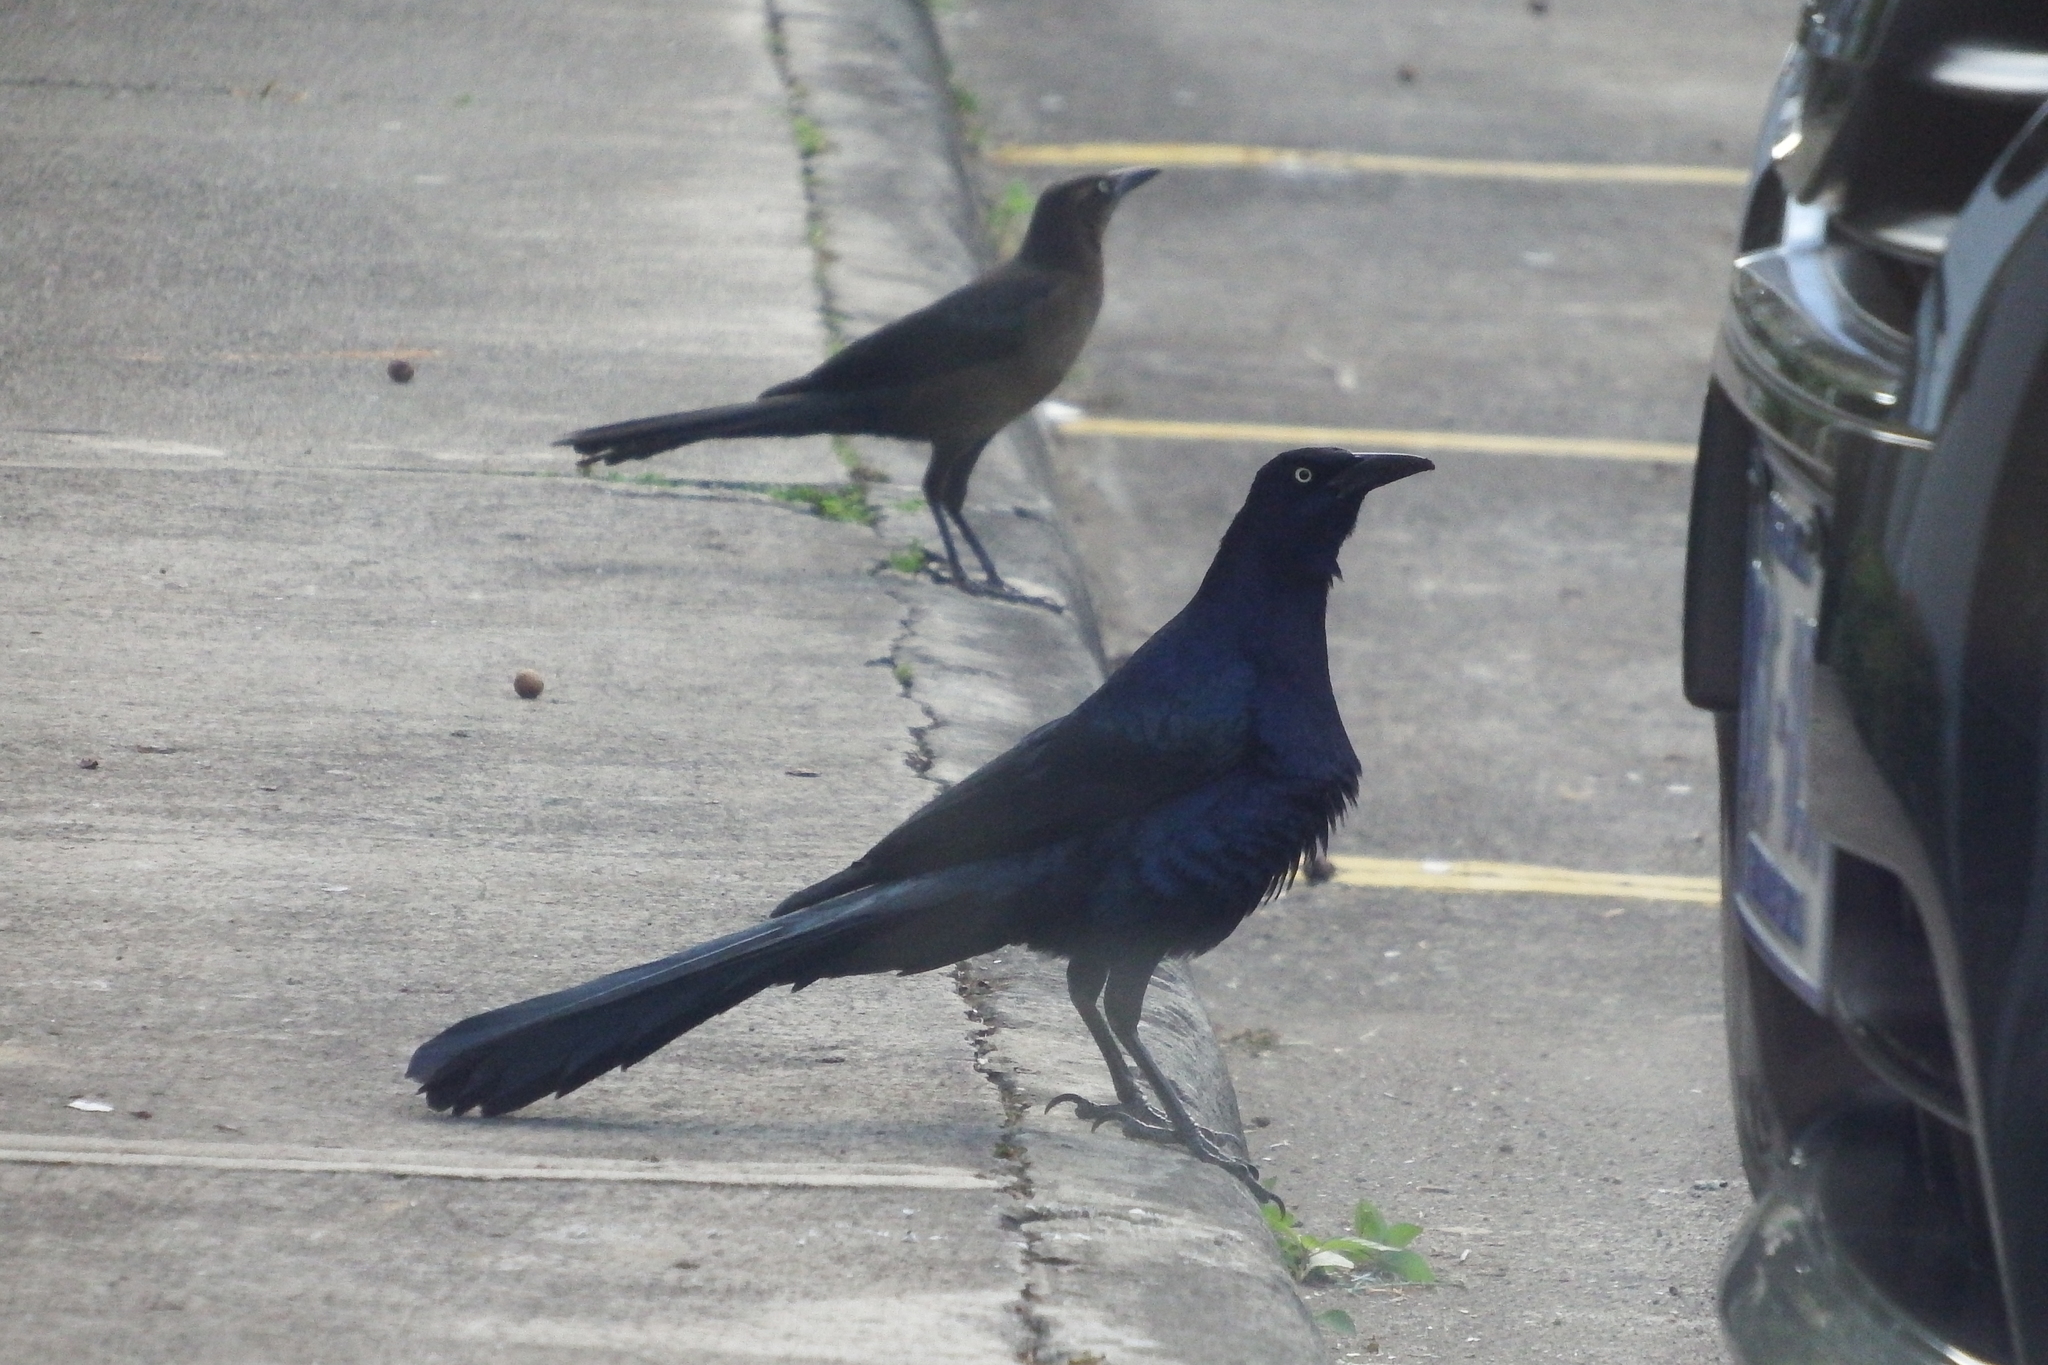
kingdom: Animalia
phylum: Chordata
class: Aves
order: Passeriformes
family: Icteridae
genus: Quiscalus
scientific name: Quiscalus mexicanus
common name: Great-tailed grackle
